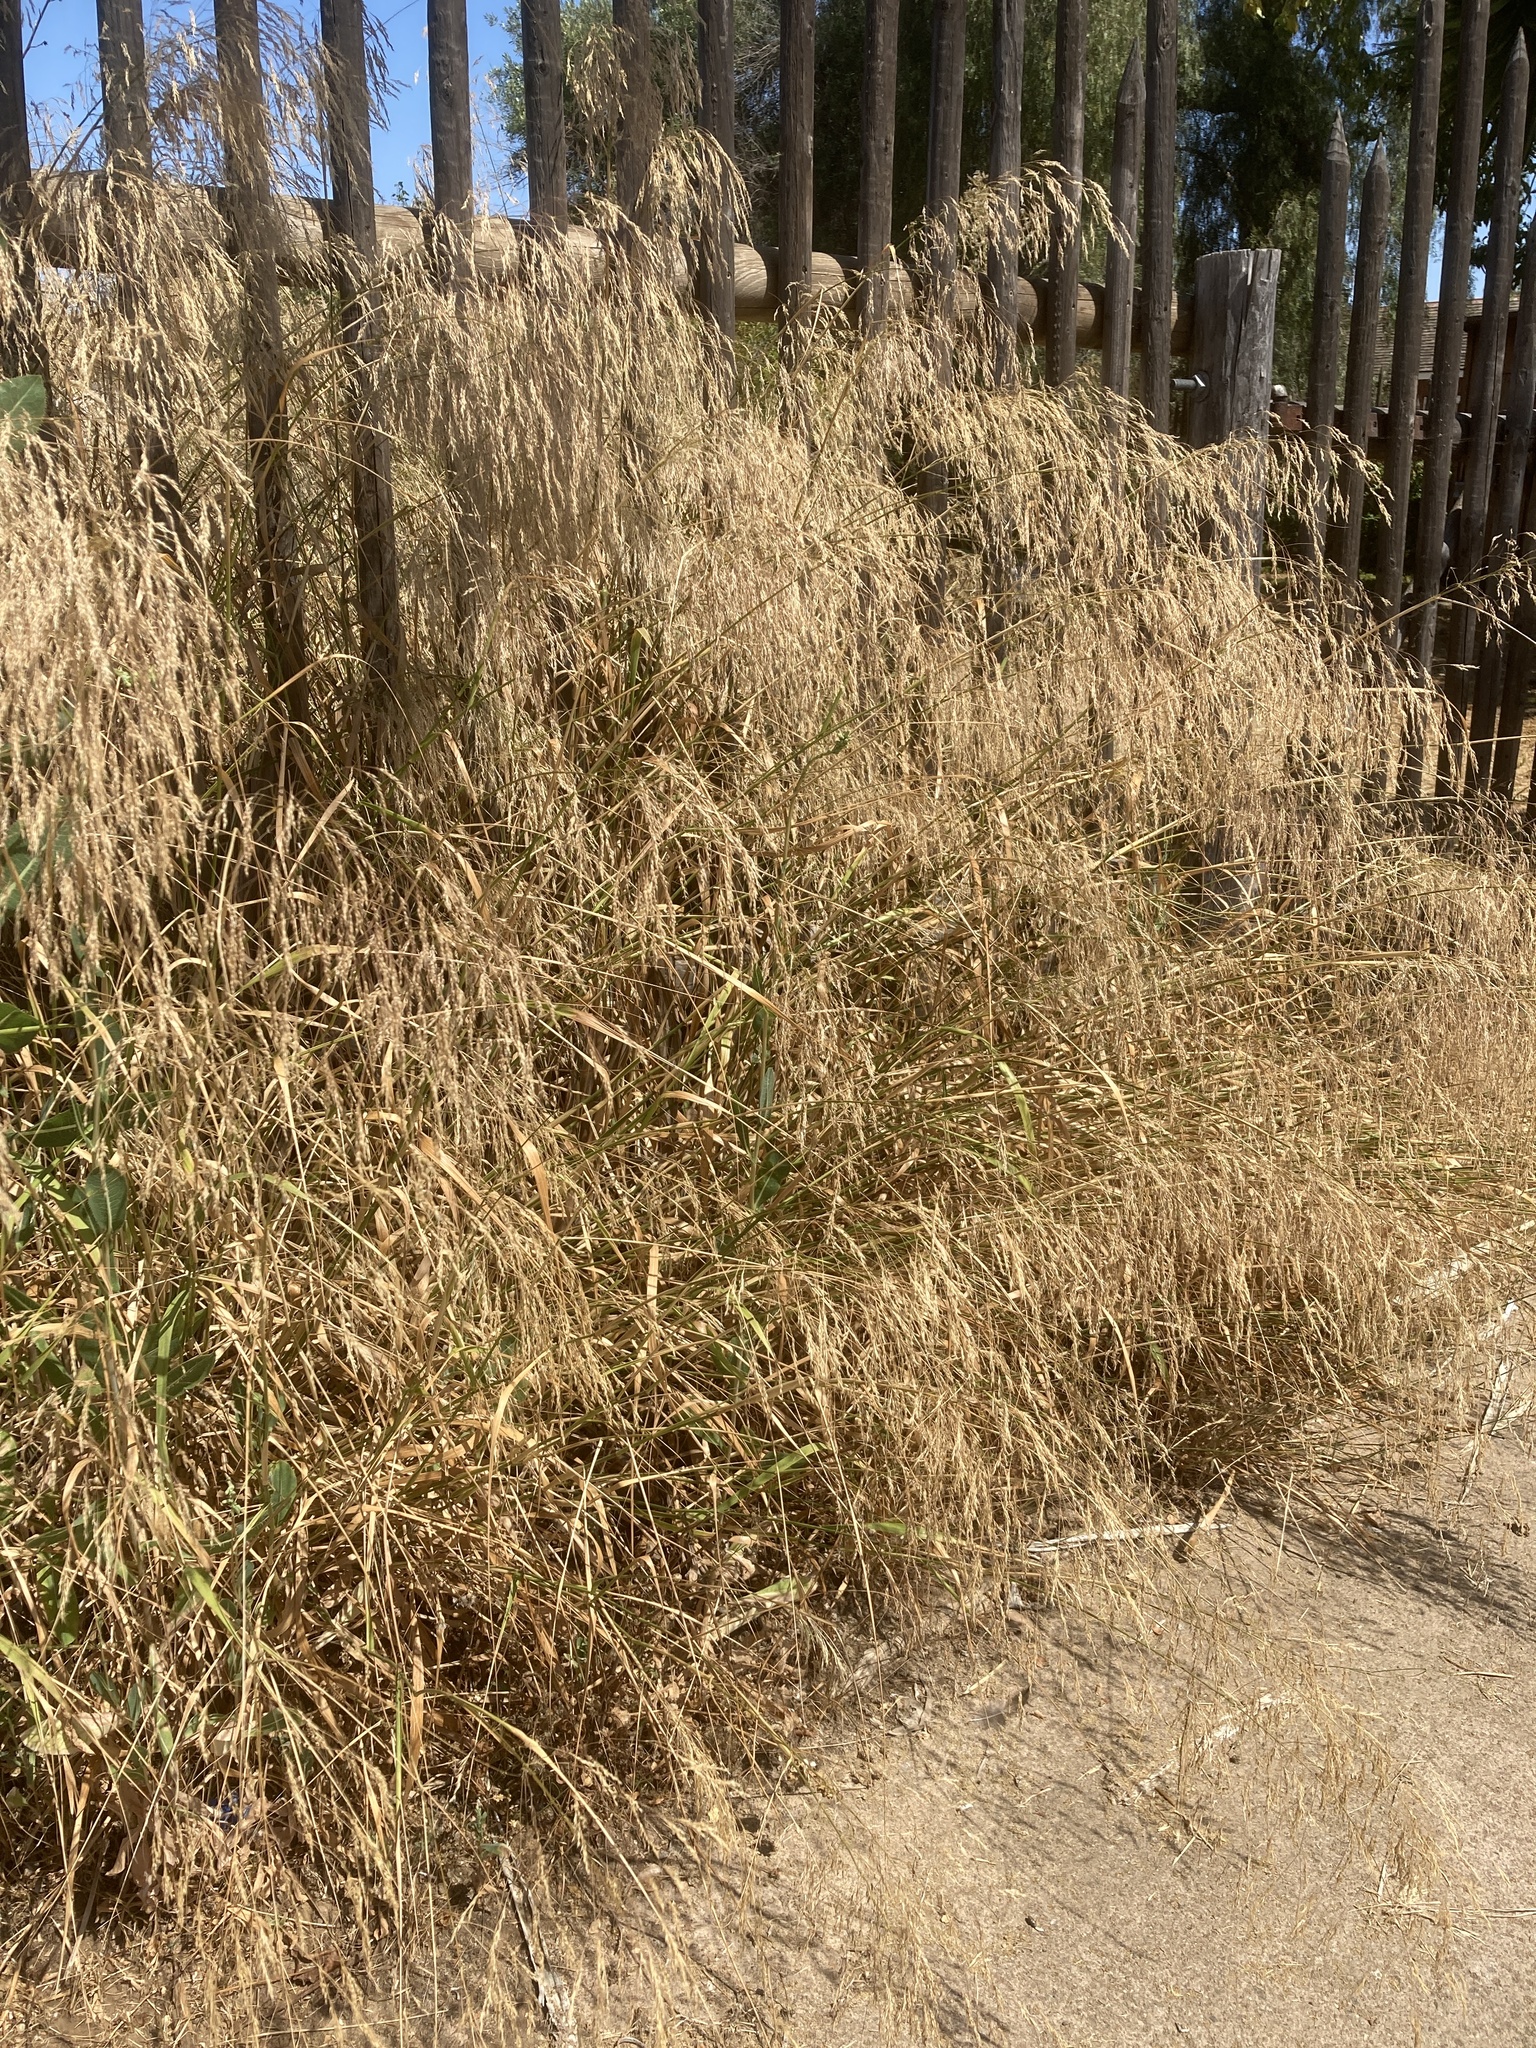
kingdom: Plantae
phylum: Tracheophyta
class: Liliopsida
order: Poales
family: Poaceae
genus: Oloptum
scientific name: Oloptum miliaceum
